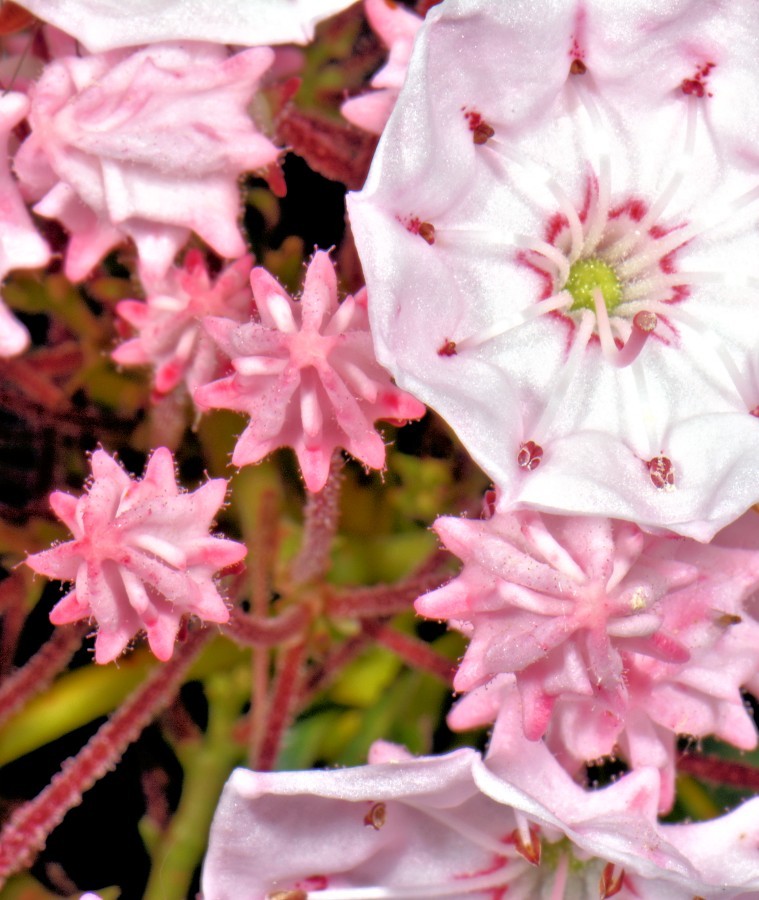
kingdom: Plantae
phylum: Tracheophyta
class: Magnoliopsida
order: Ericales
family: Ericaceae
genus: Kalmia
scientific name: Kalmia latifolia
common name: Mountain-laurel
